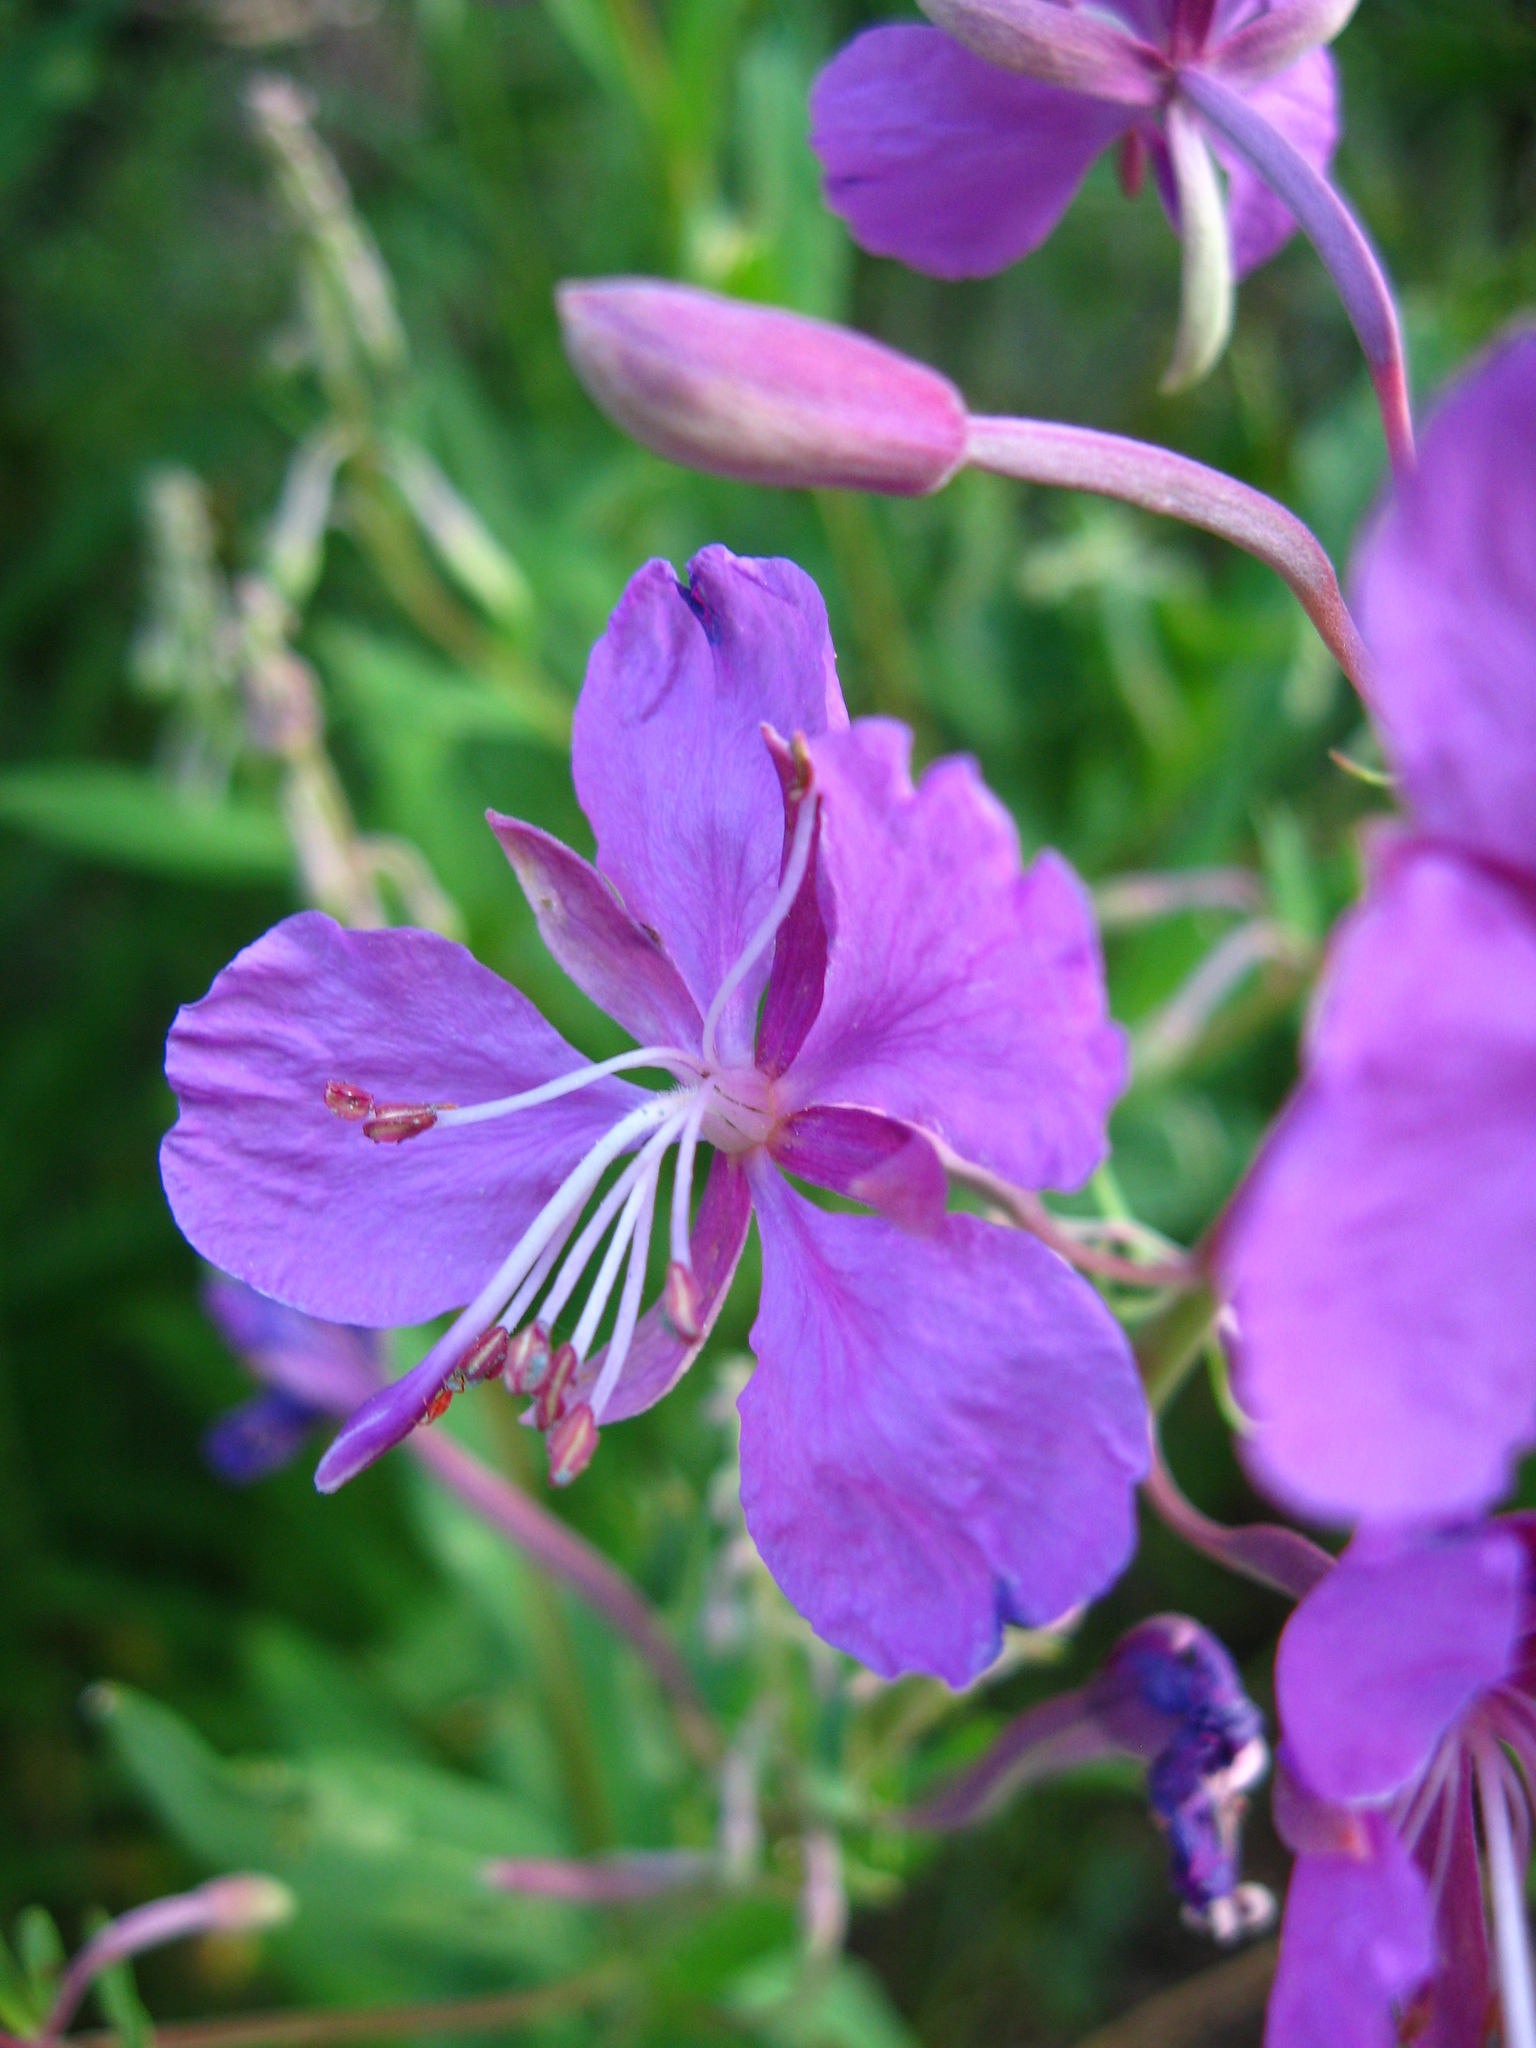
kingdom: Plantae
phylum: Tracheophyta
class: Magnoliopsida
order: Myrtales
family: Onagraceae
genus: Chamaenerion
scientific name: Chamaenerion angustifolium
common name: Fireweed
